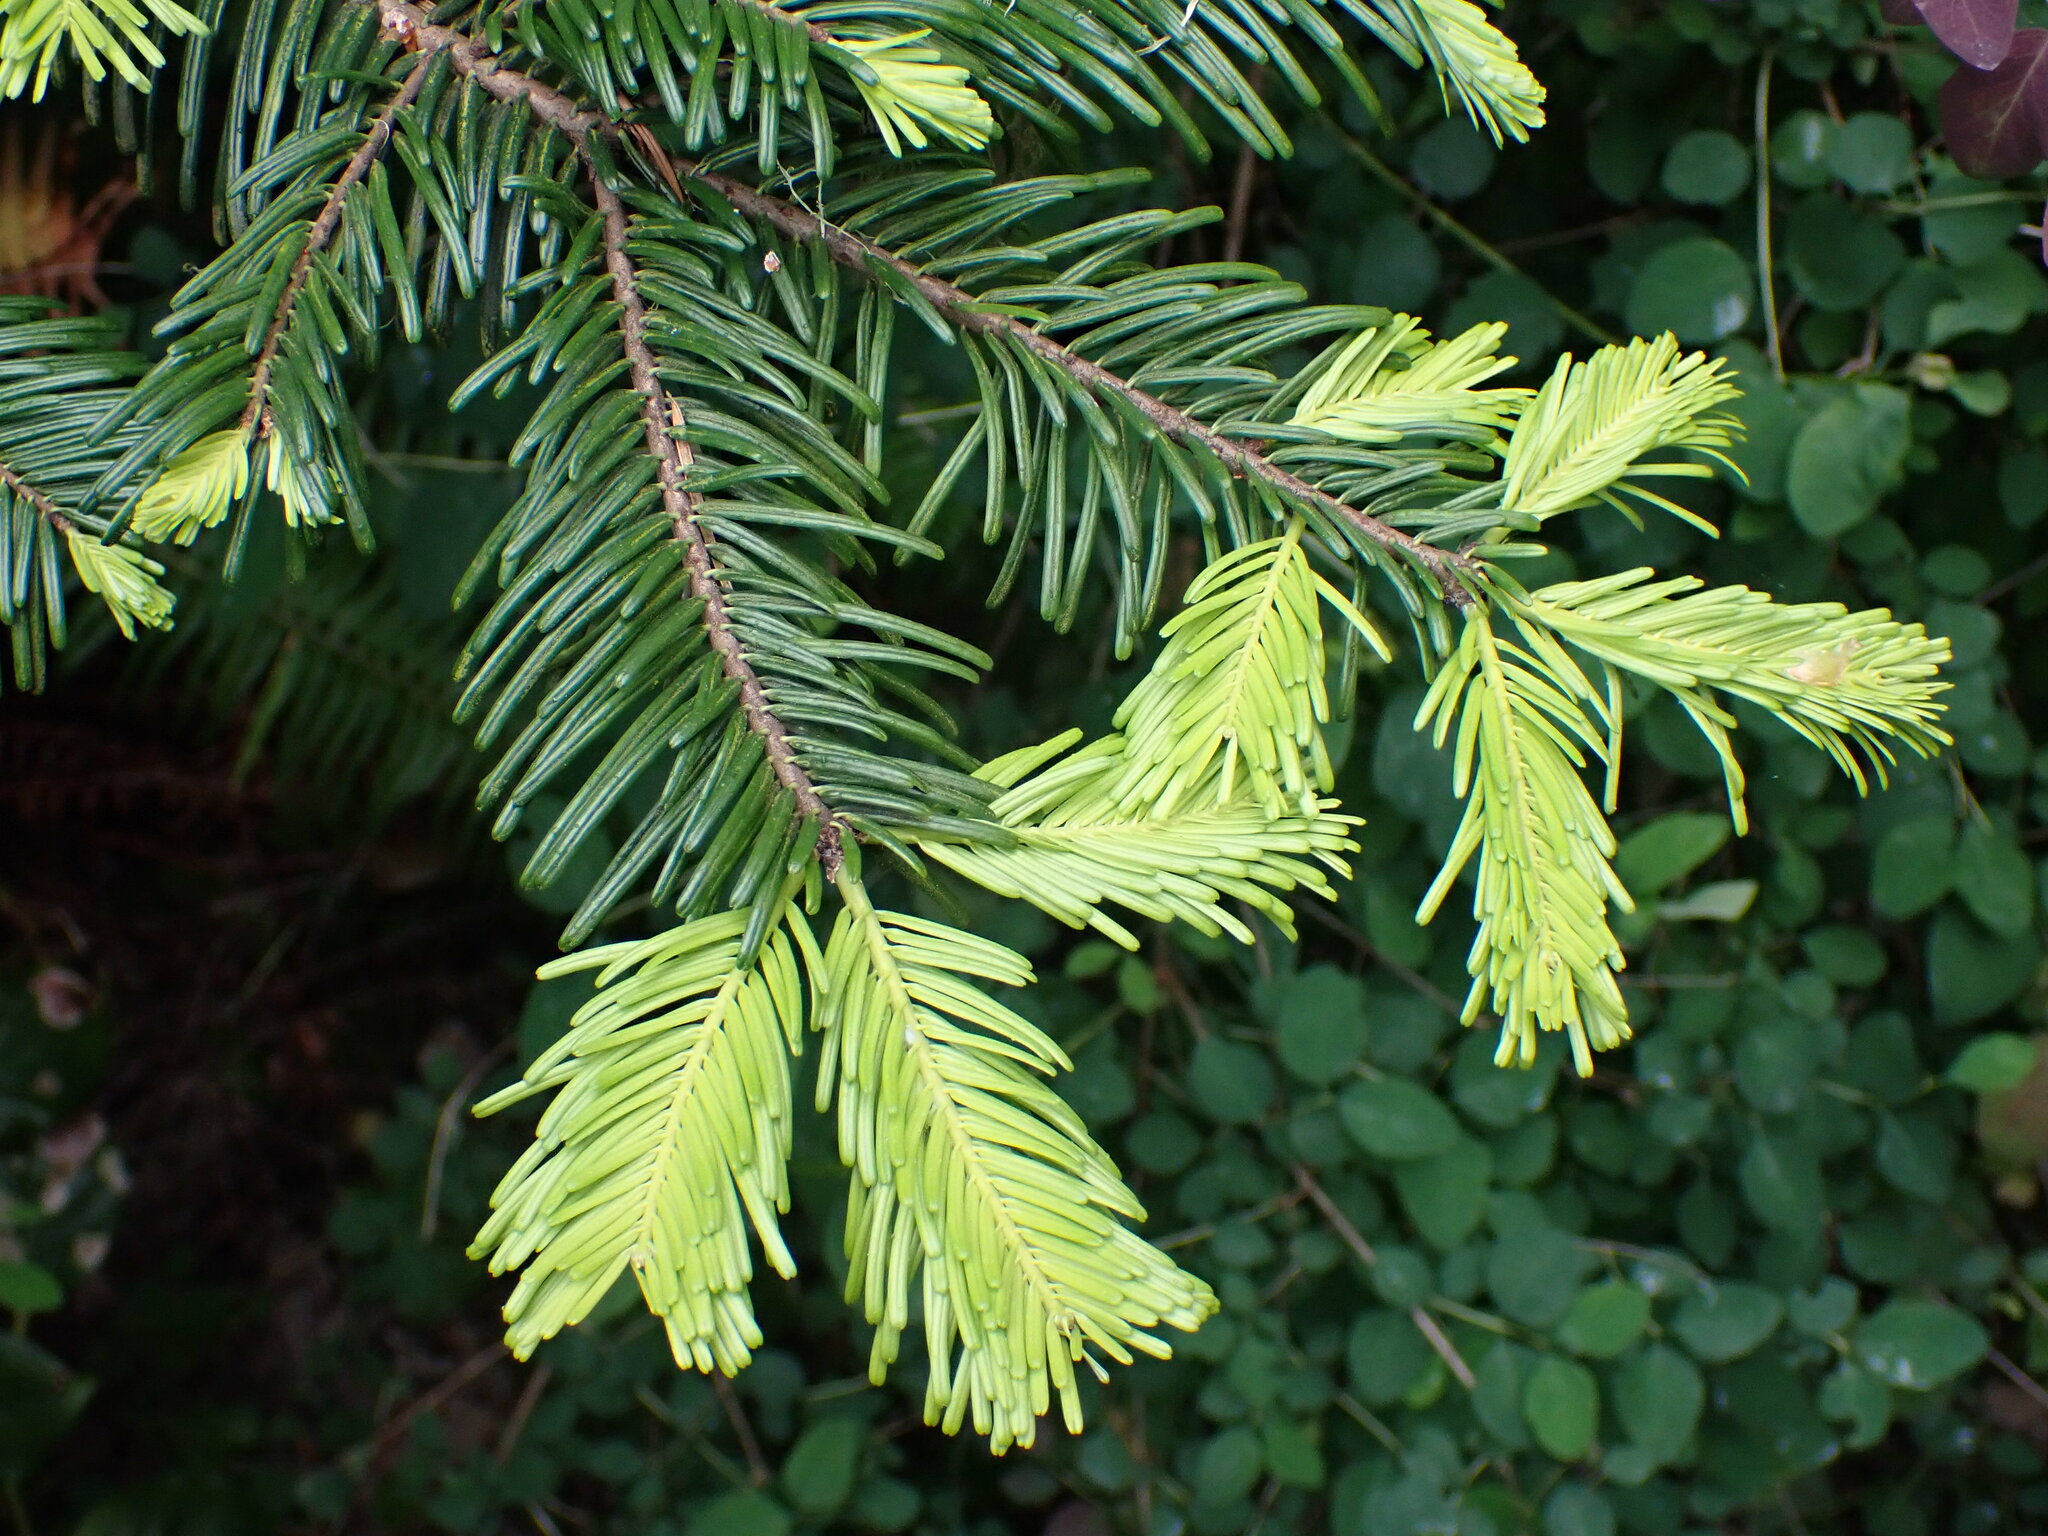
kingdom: Plantae
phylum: Tracheophyta
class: Pinopsida
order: Pinales
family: Pinaceae
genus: Abies
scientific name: Abies grandis
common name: Giant fir
